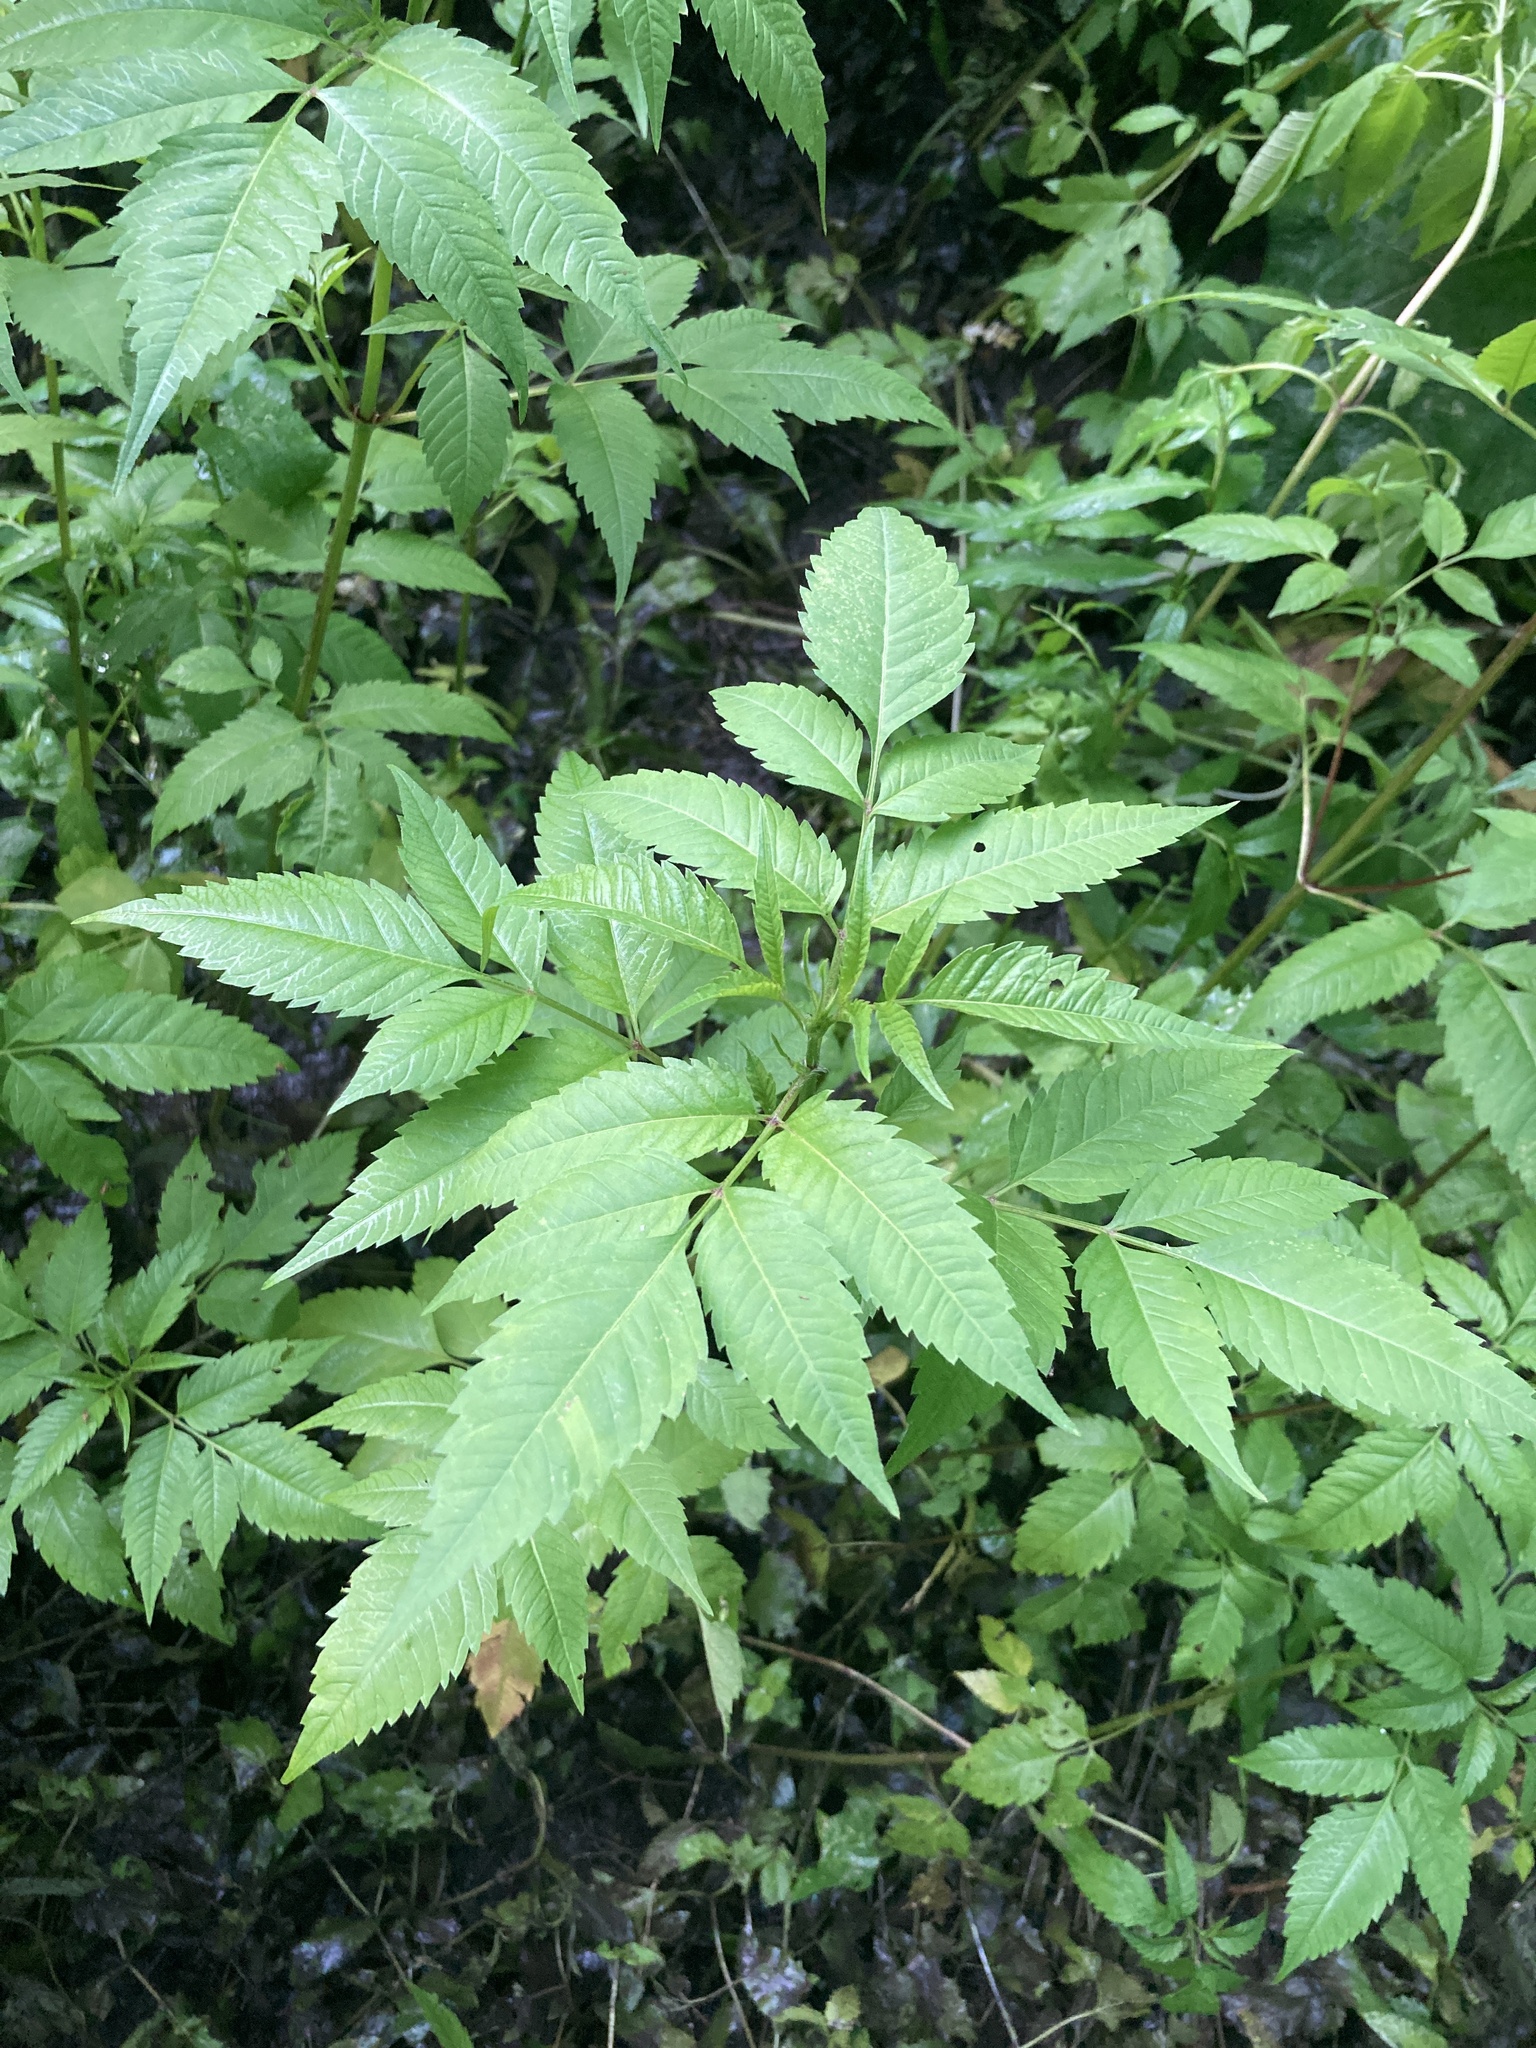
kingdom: Plantae
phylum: Tracheophyta
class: Magnoliopsida
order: Asterales
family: Asteraceae
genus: Bidens
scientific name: Bidens frondosa
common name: Beggarticks
